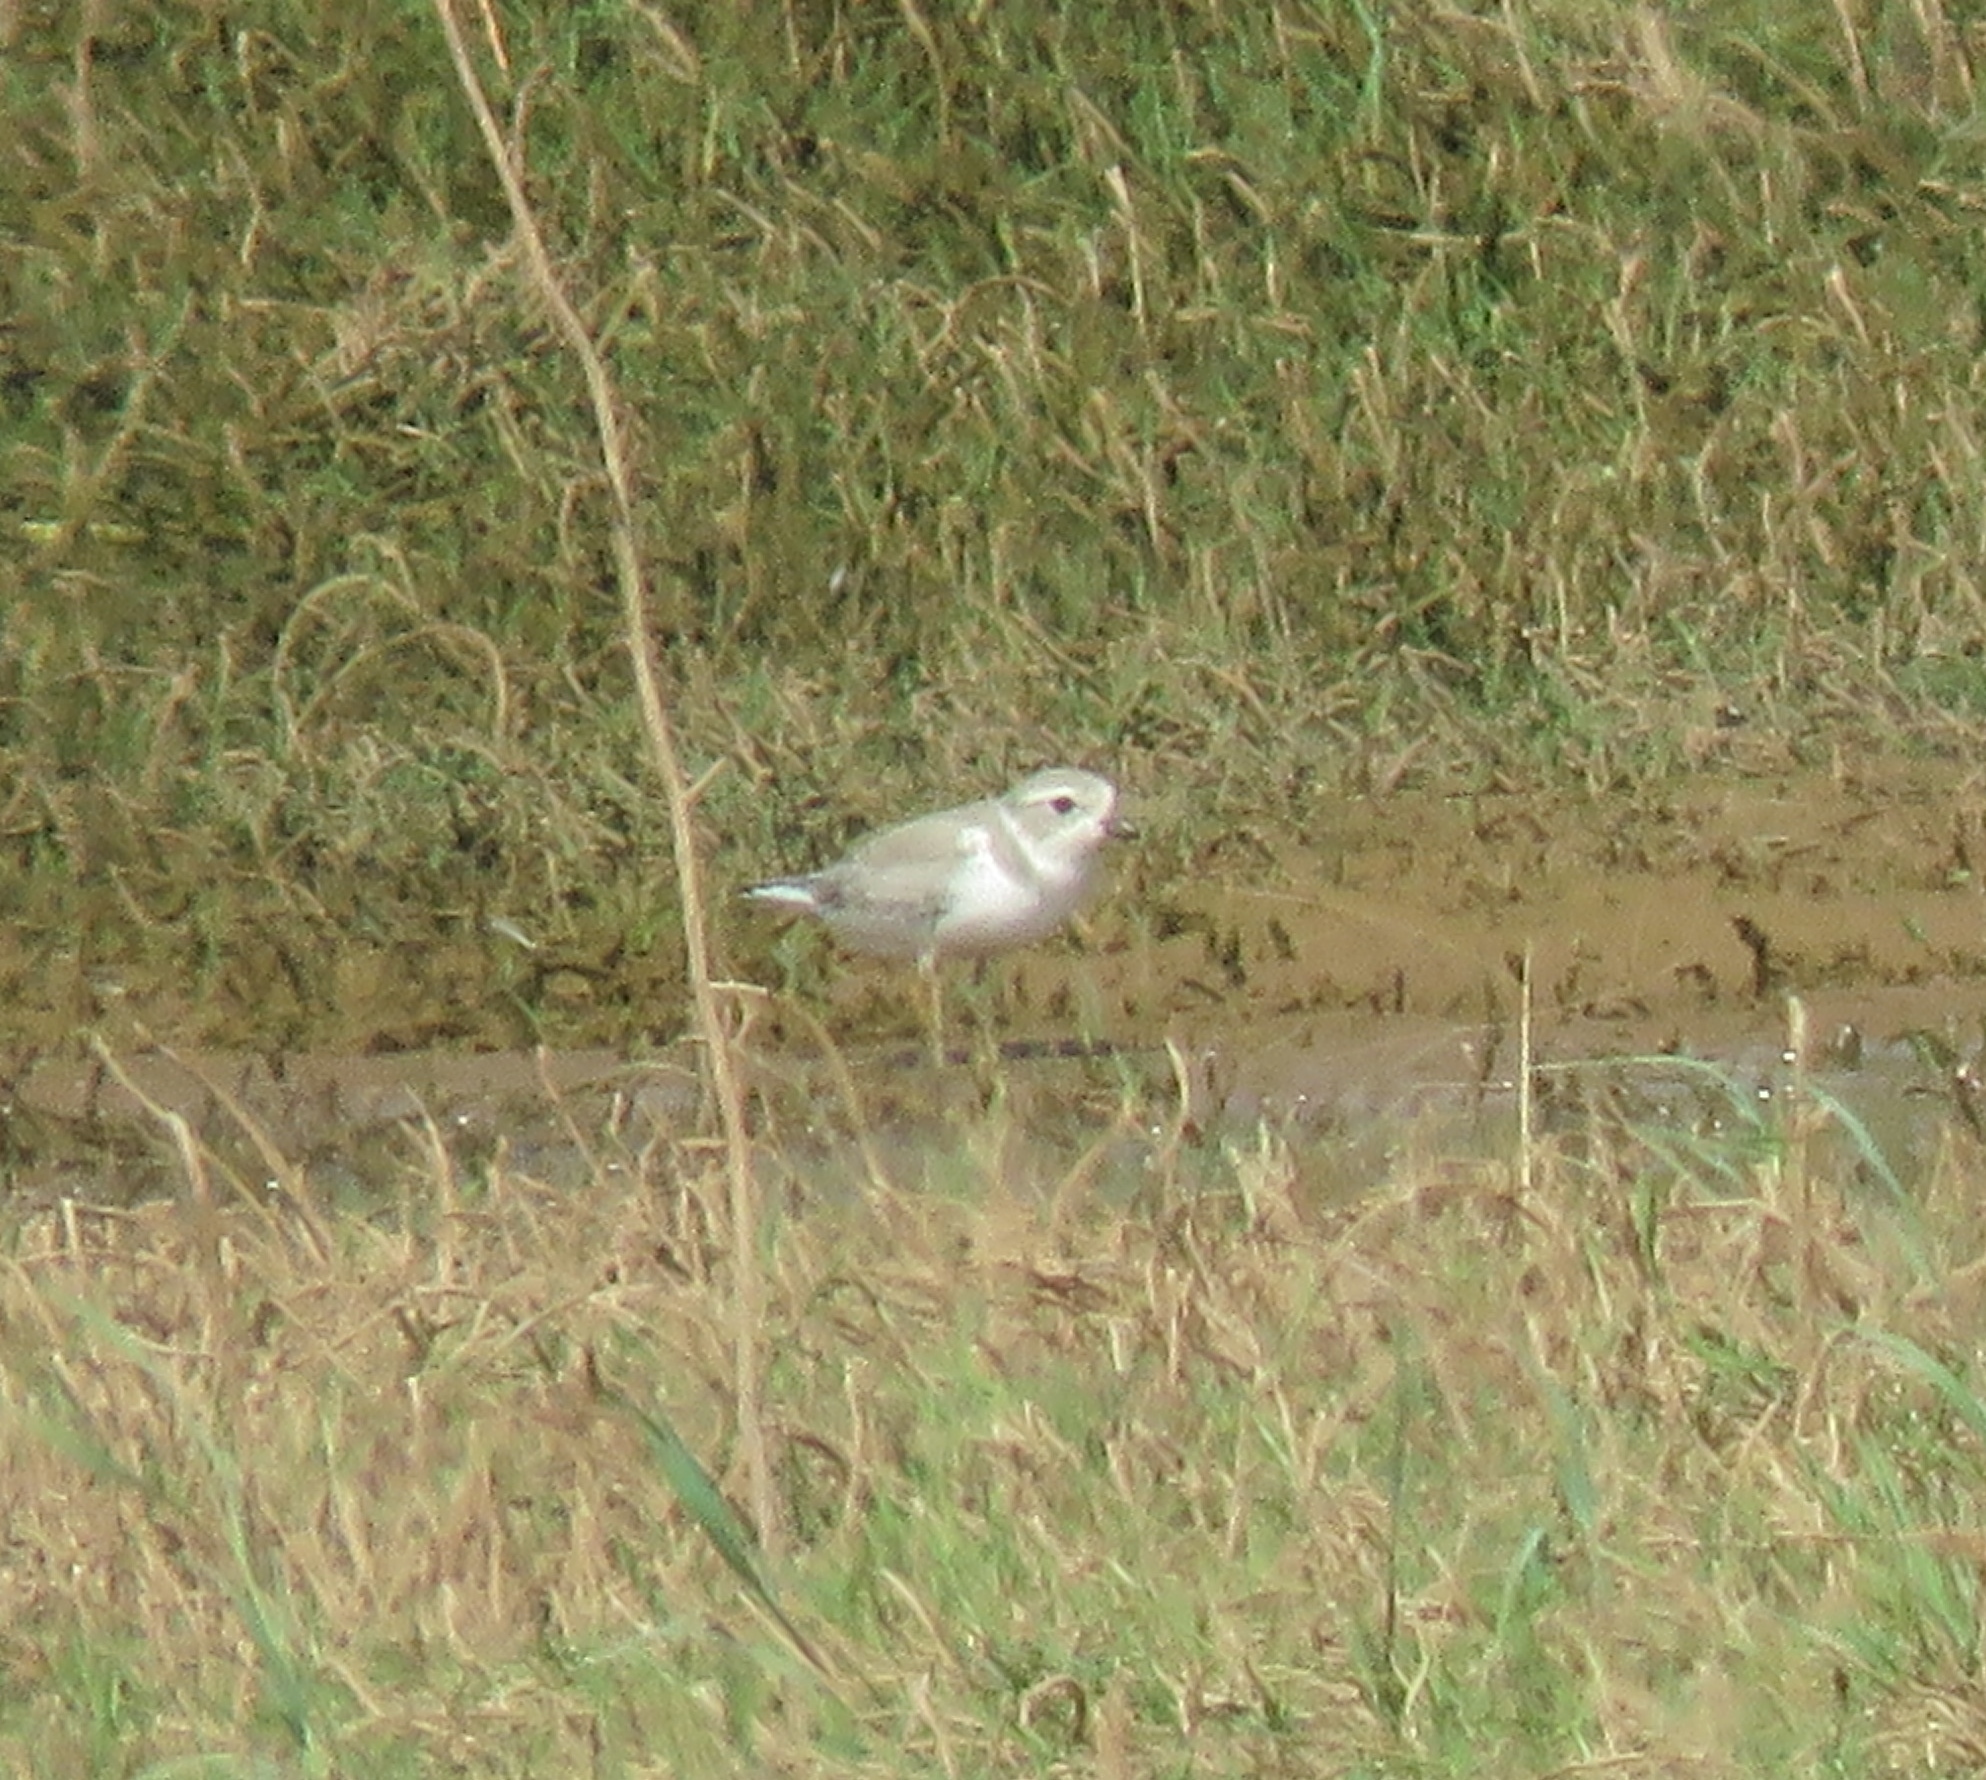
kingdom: Animalia
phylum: Chordata
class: Aves
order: Charadriiformes
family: Charadriidae
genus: Charadrius
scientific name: Charadrius melodus
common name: Piping plover
